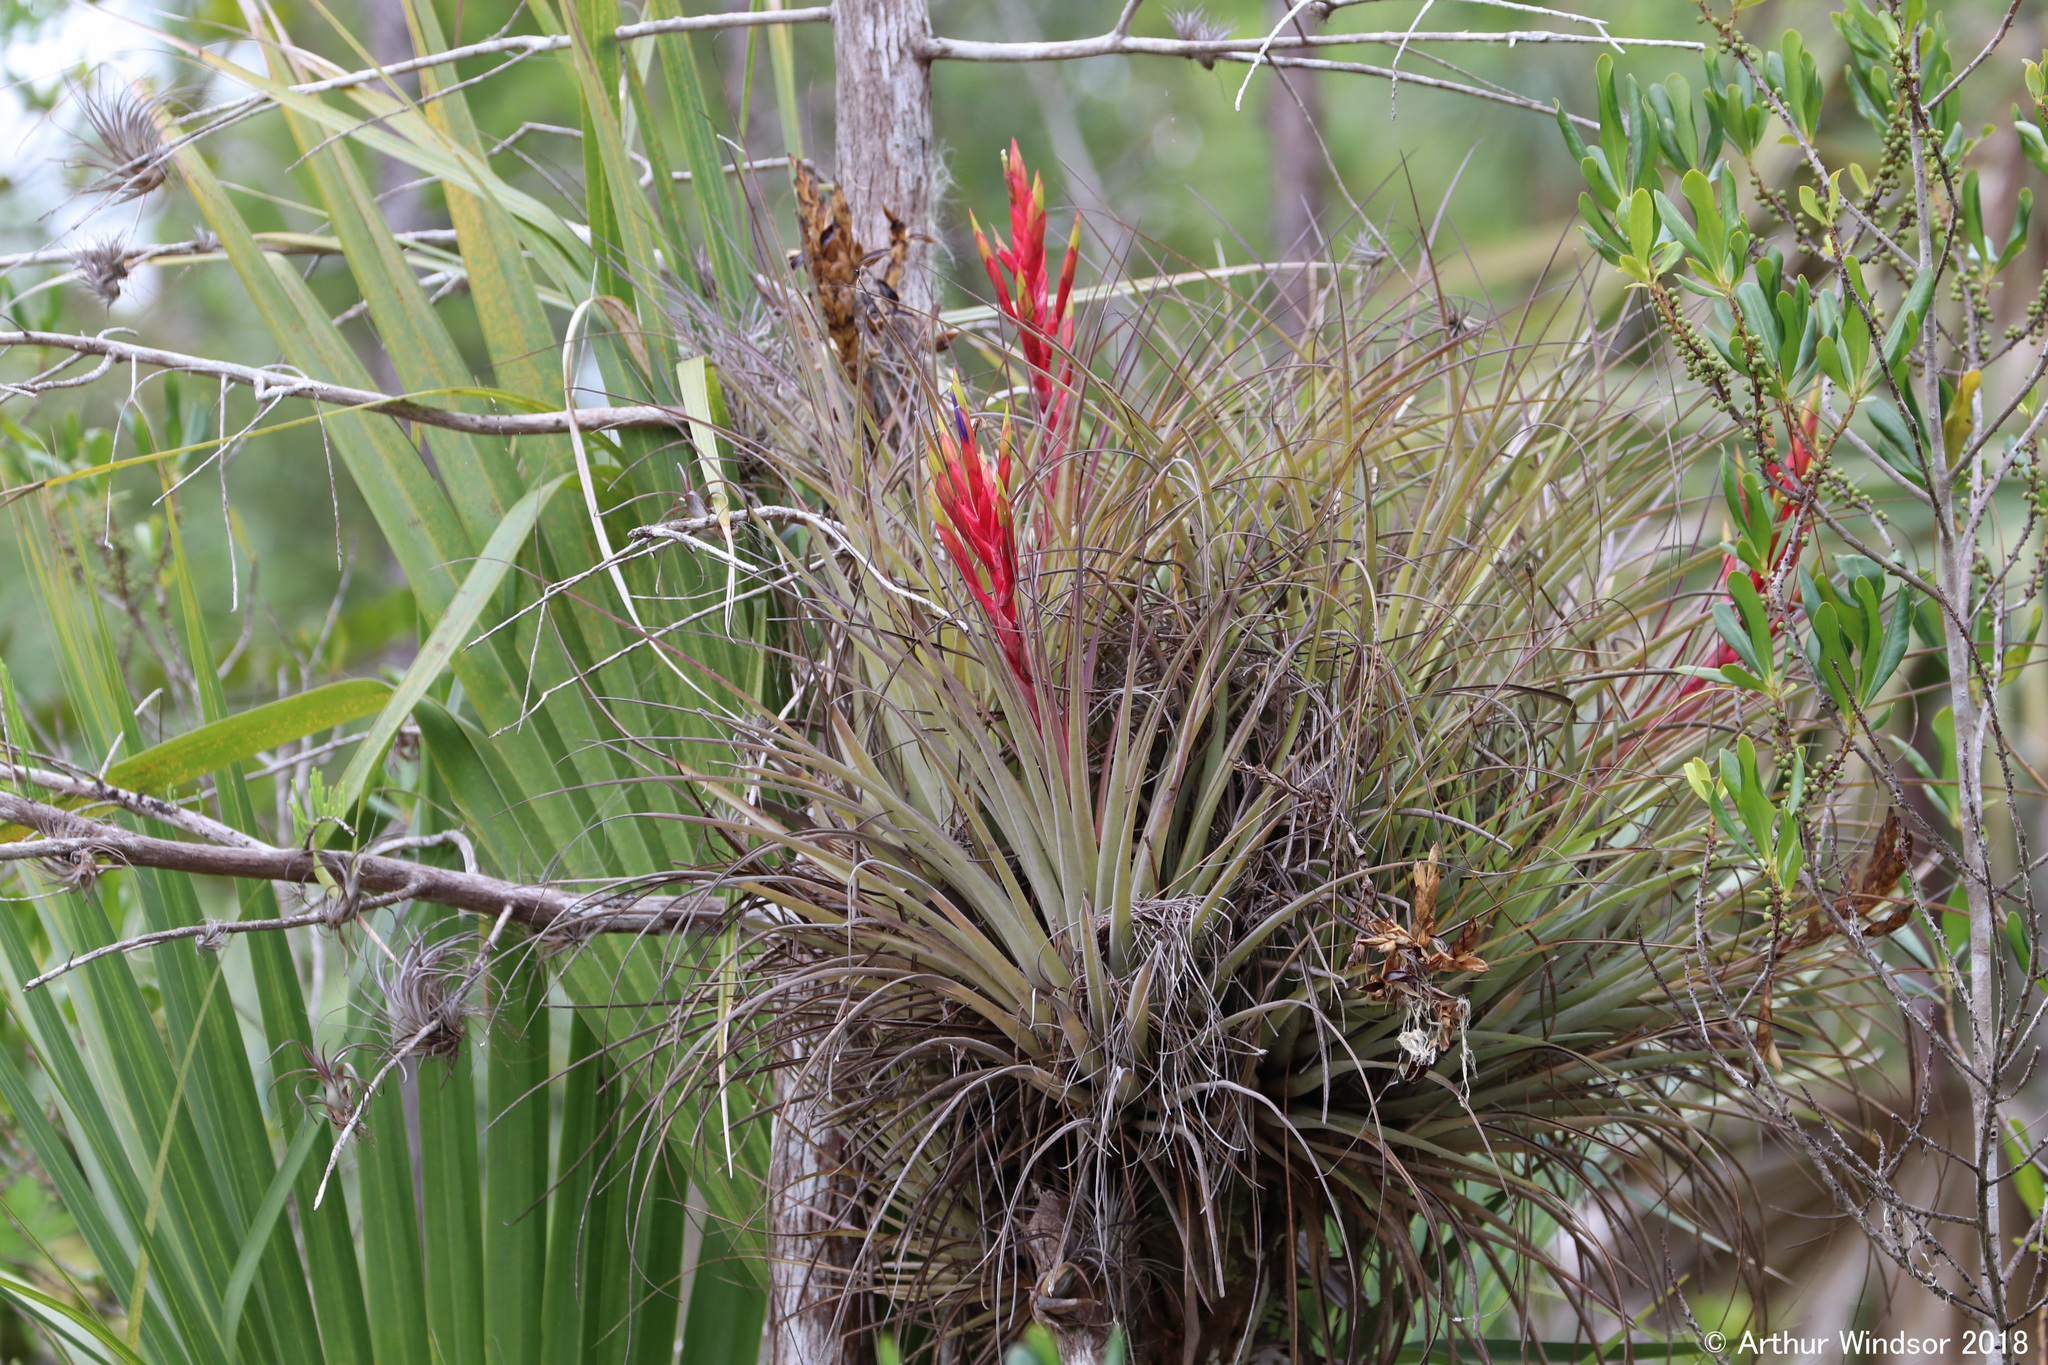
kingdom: Plantae
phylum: Tracheophyta
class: Liliopsida
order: Poales
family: Bromeliaceae
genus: Tillandsia
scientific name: Tillandsia fasciculata
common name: Giant airplant
